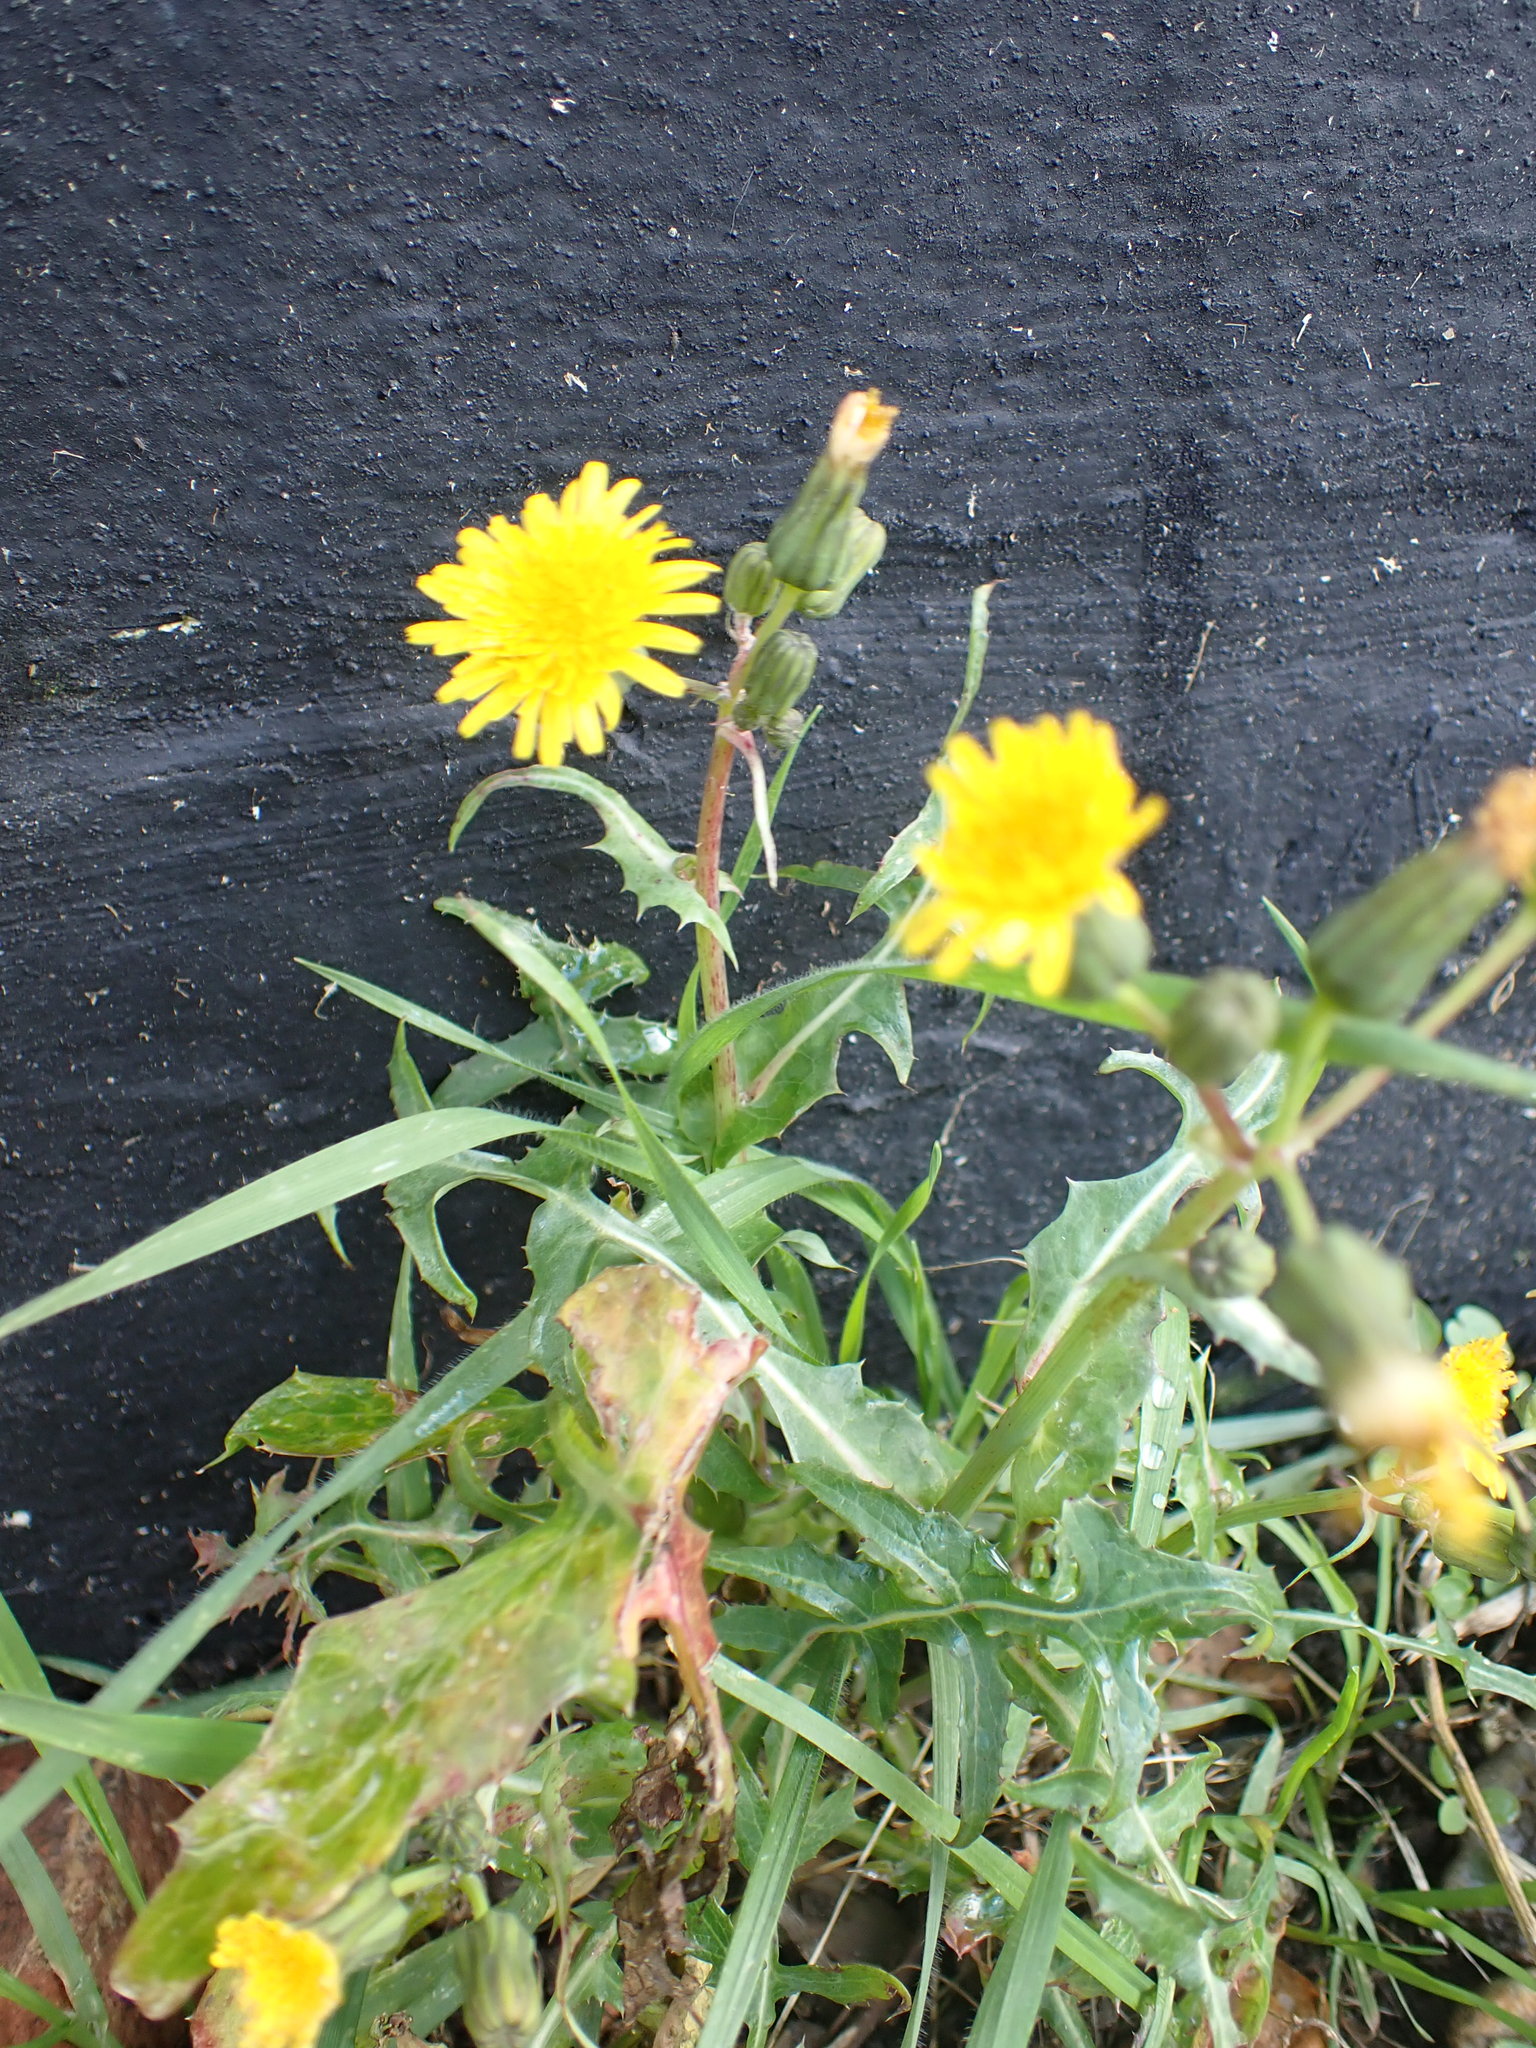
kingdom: Plantae
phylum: Tracheophyta
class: Magnoliopsida
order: Asterales
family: Asteraceae
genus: Sonchus
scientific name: Sonchus oleraceus
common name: Common sowthistle
